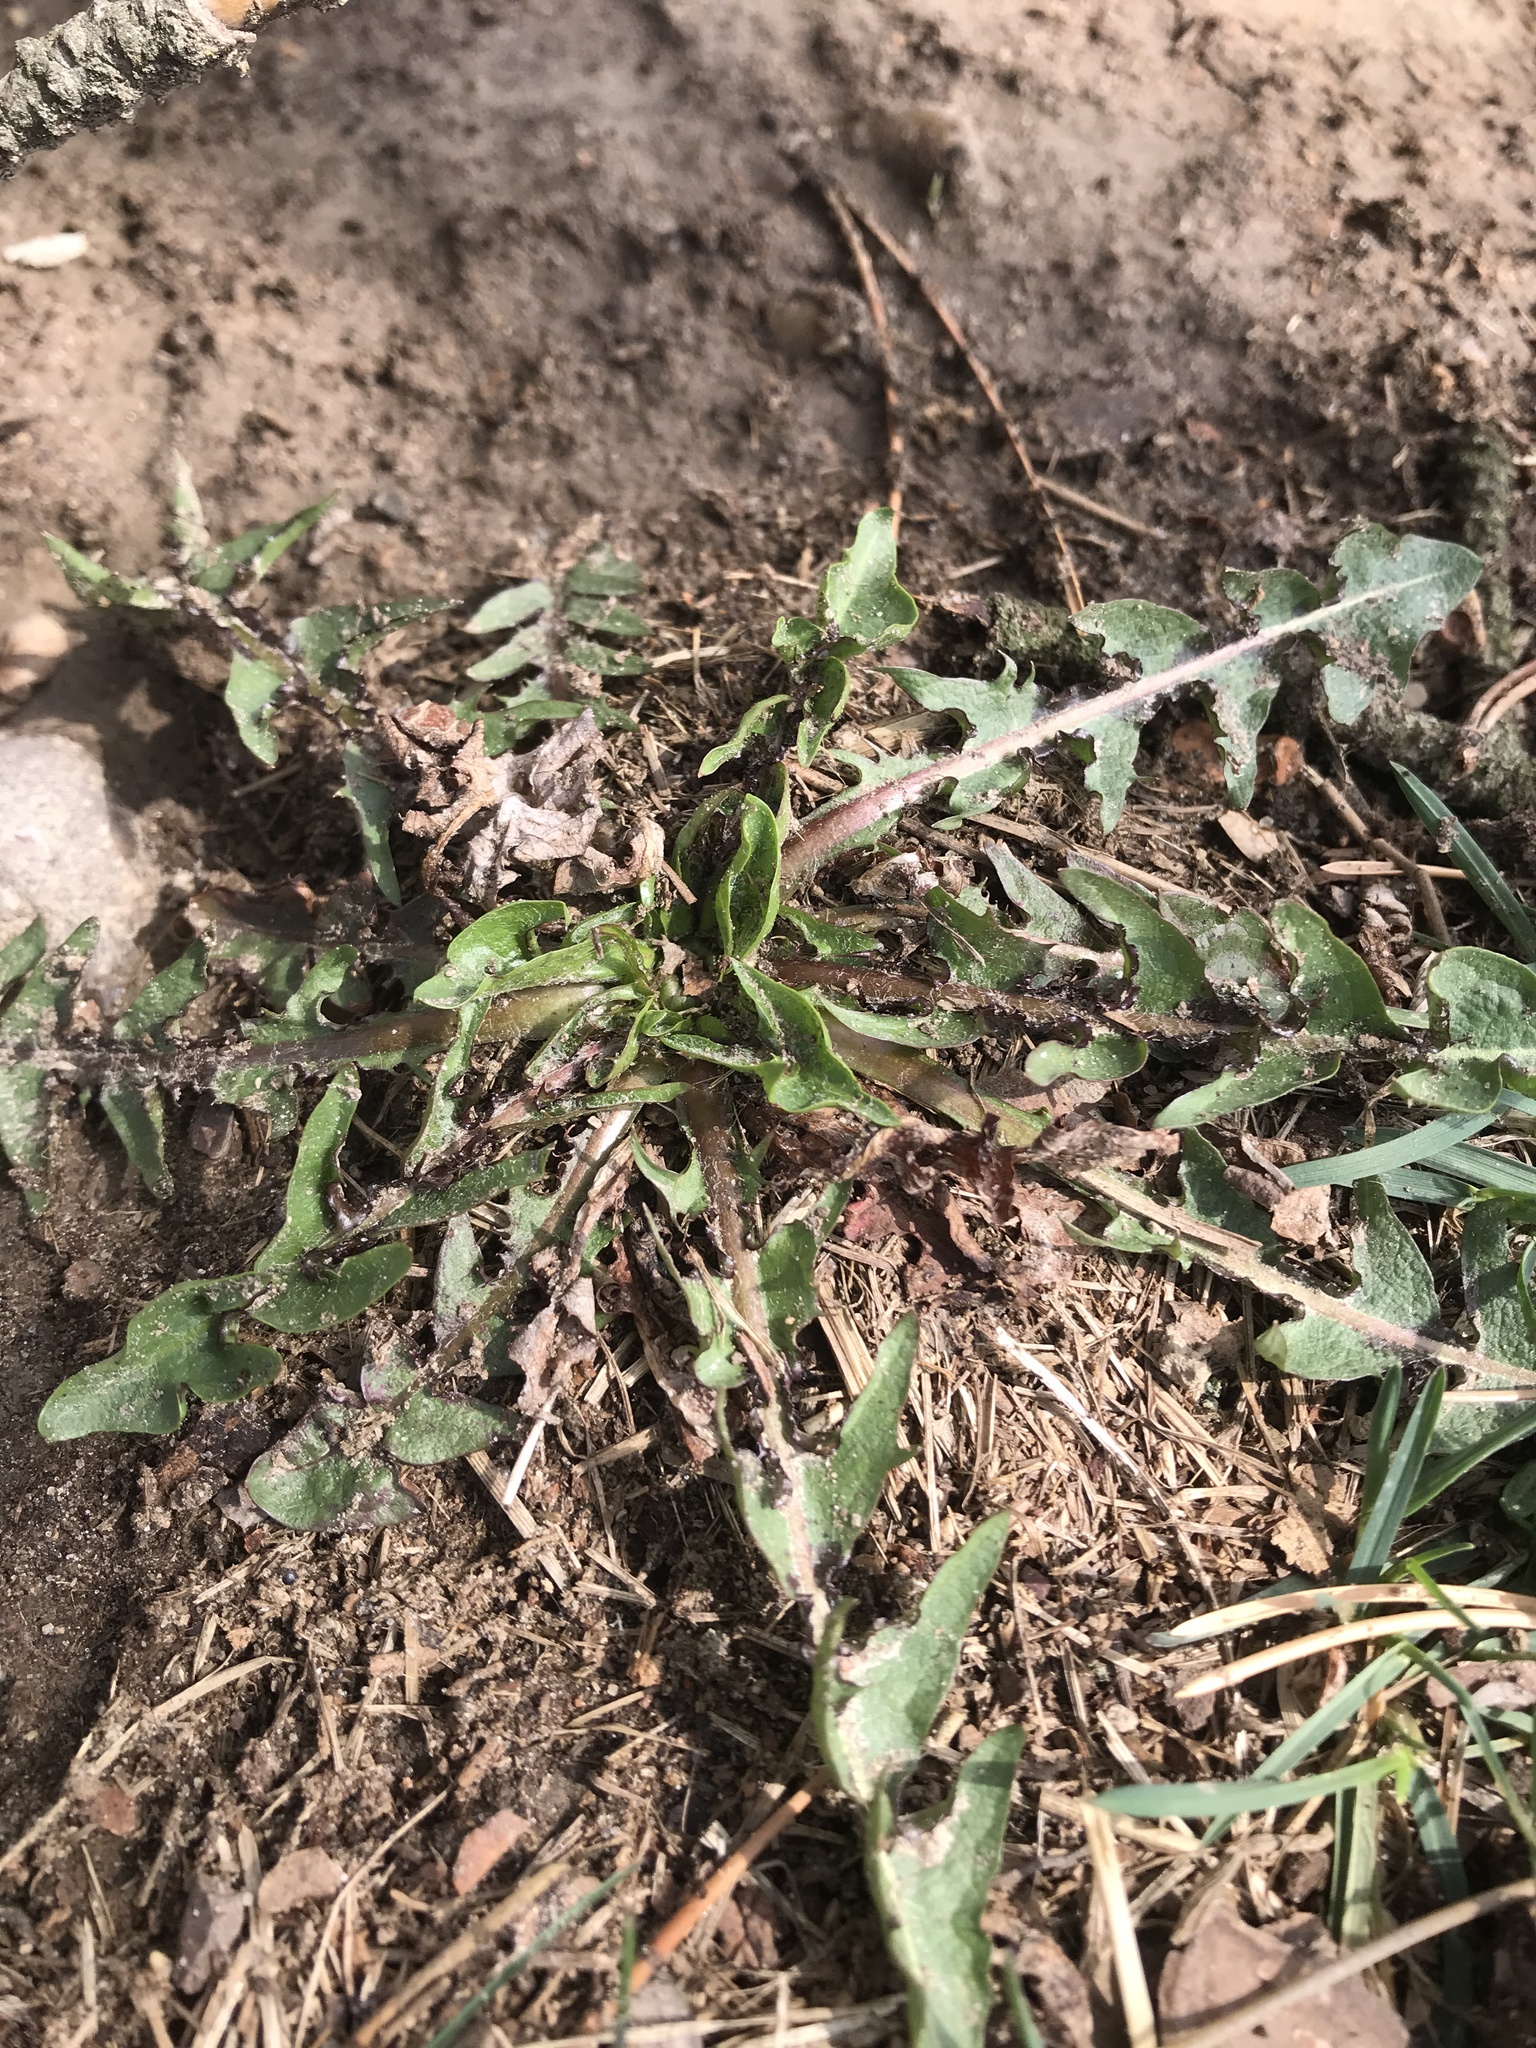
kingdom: Plantae
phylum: Tracheophyta
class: Magnoliopsida
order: Asterales
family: Asteraceae
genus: Taraxacum
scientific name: Taraxacum officinale
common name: Common dandelion
